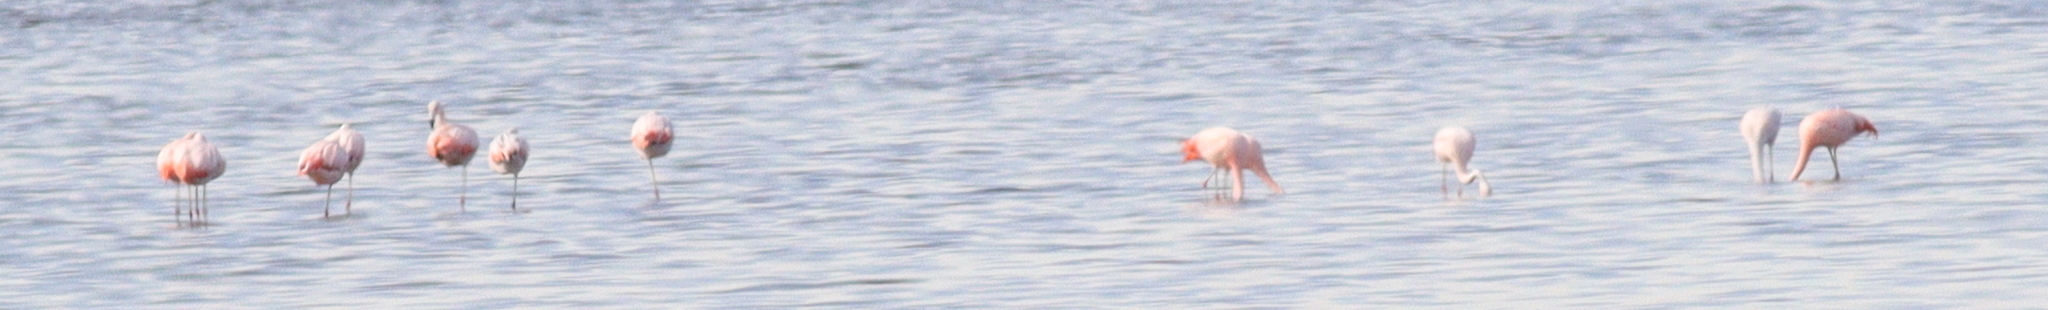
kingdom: Animalia
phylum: Chordata
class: Aves
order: Phoenicopteriformes
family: Phoenicopteridae
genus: Phoenicopterus
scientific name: Phoenicopterus chilensis
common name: Chilean flamingo
